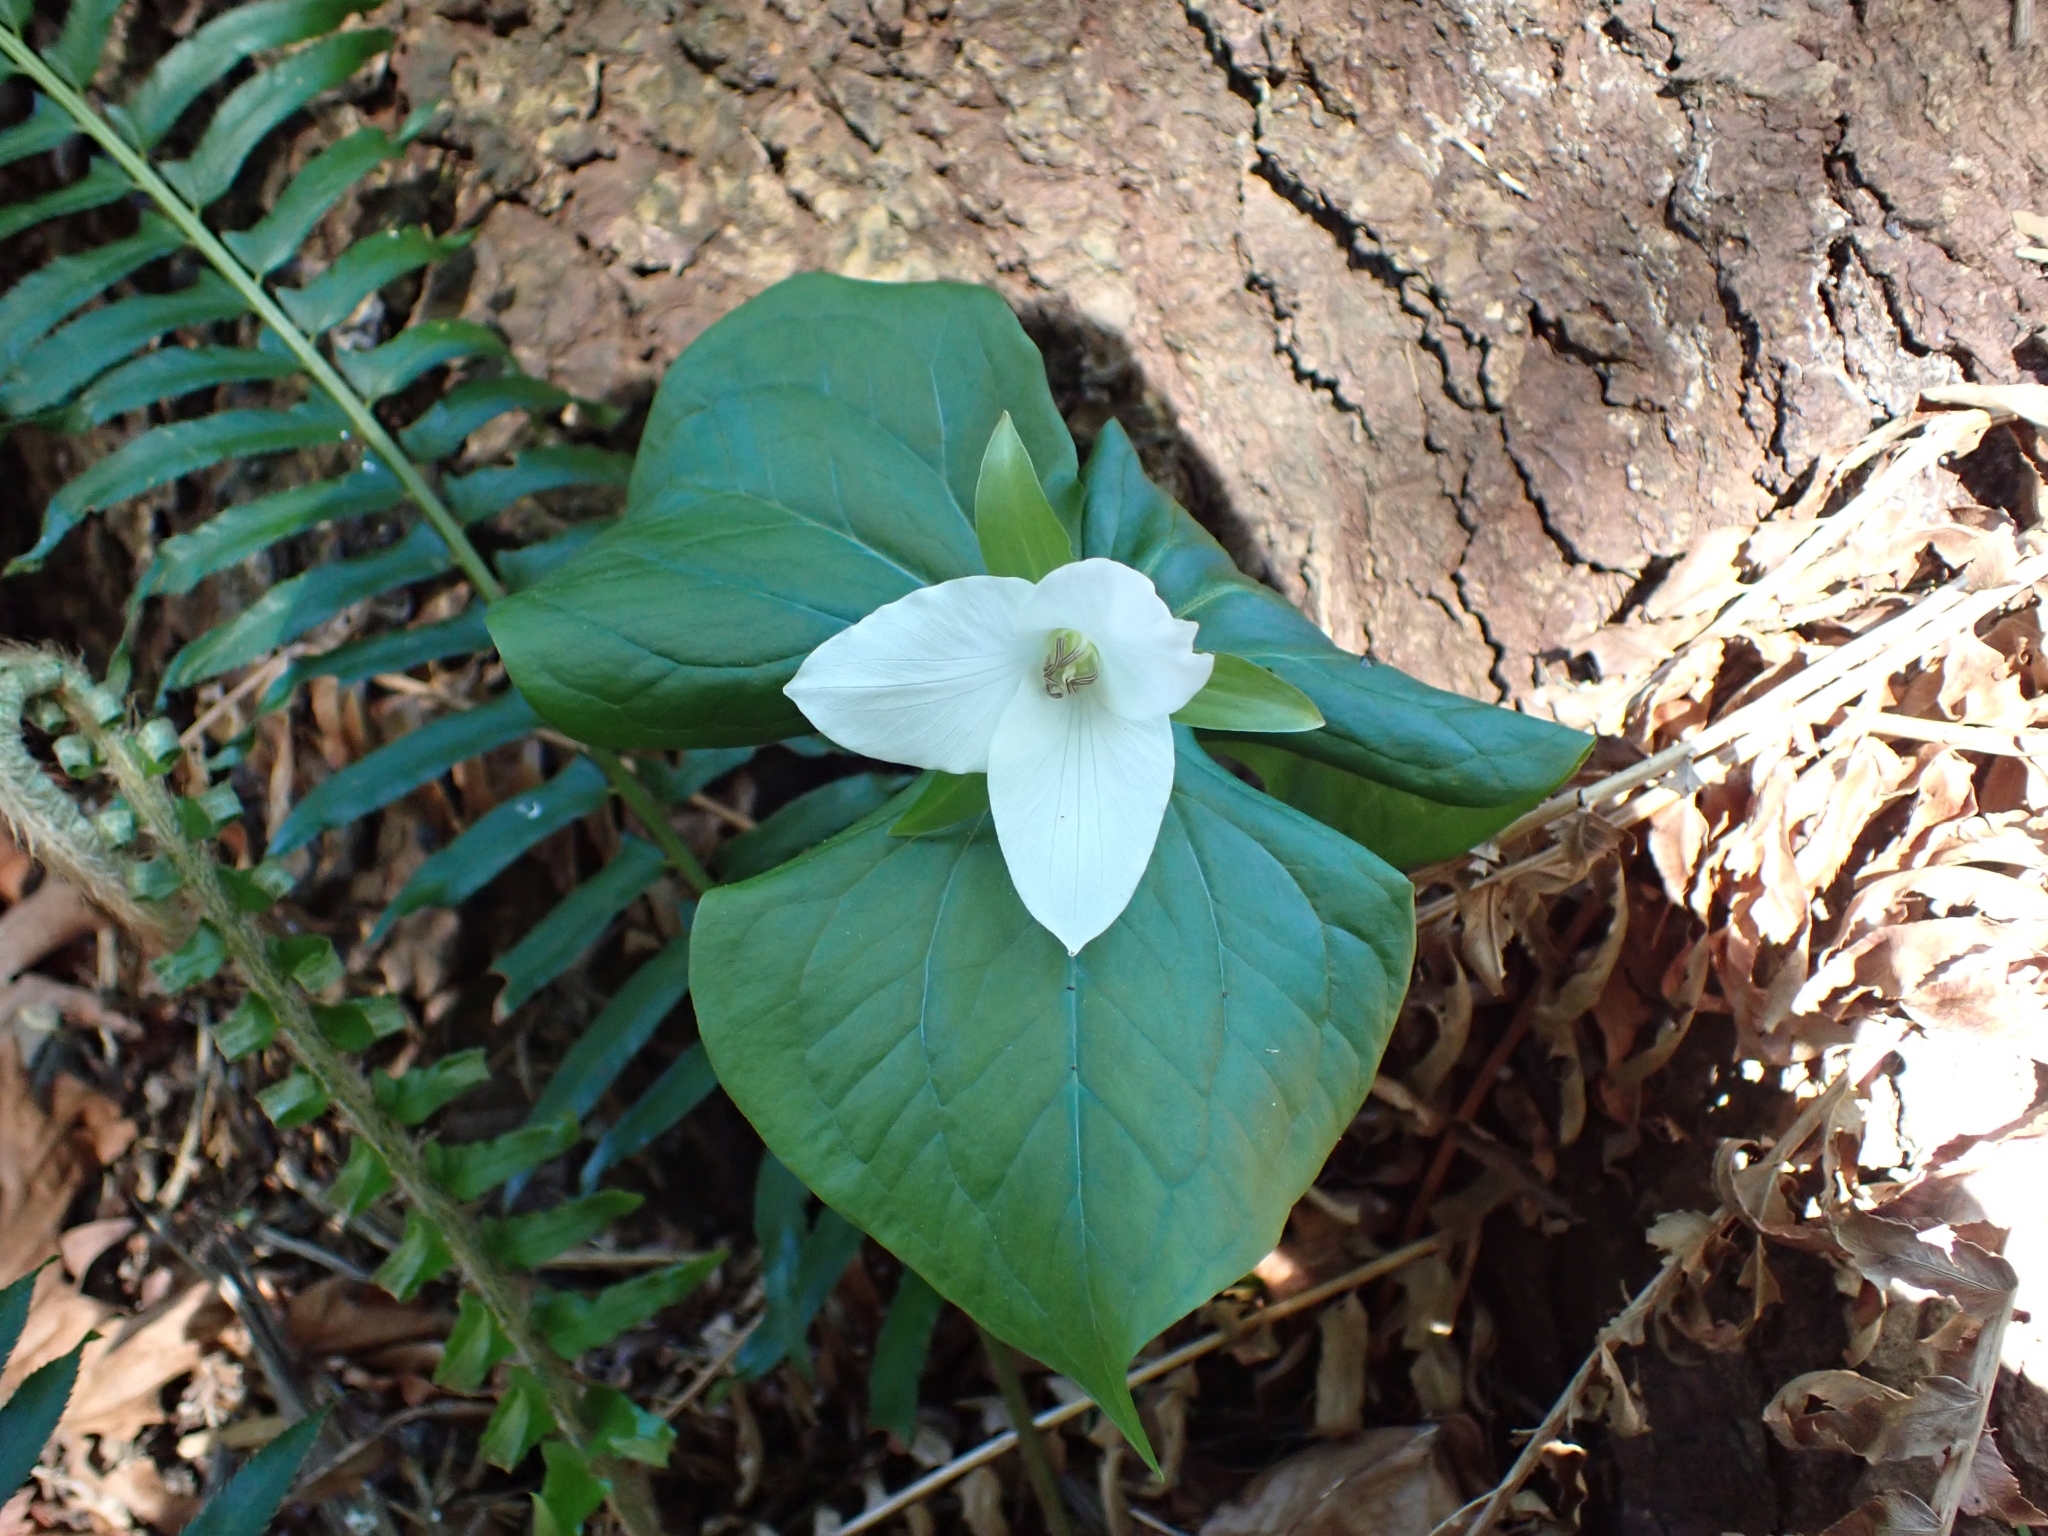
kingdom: Plantae
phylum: Tracheophyta
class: Liliopsida
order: Liliales
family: Melanthiaceae
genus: Trillium
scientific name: Trillium ovatum
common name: Pacific trillium
